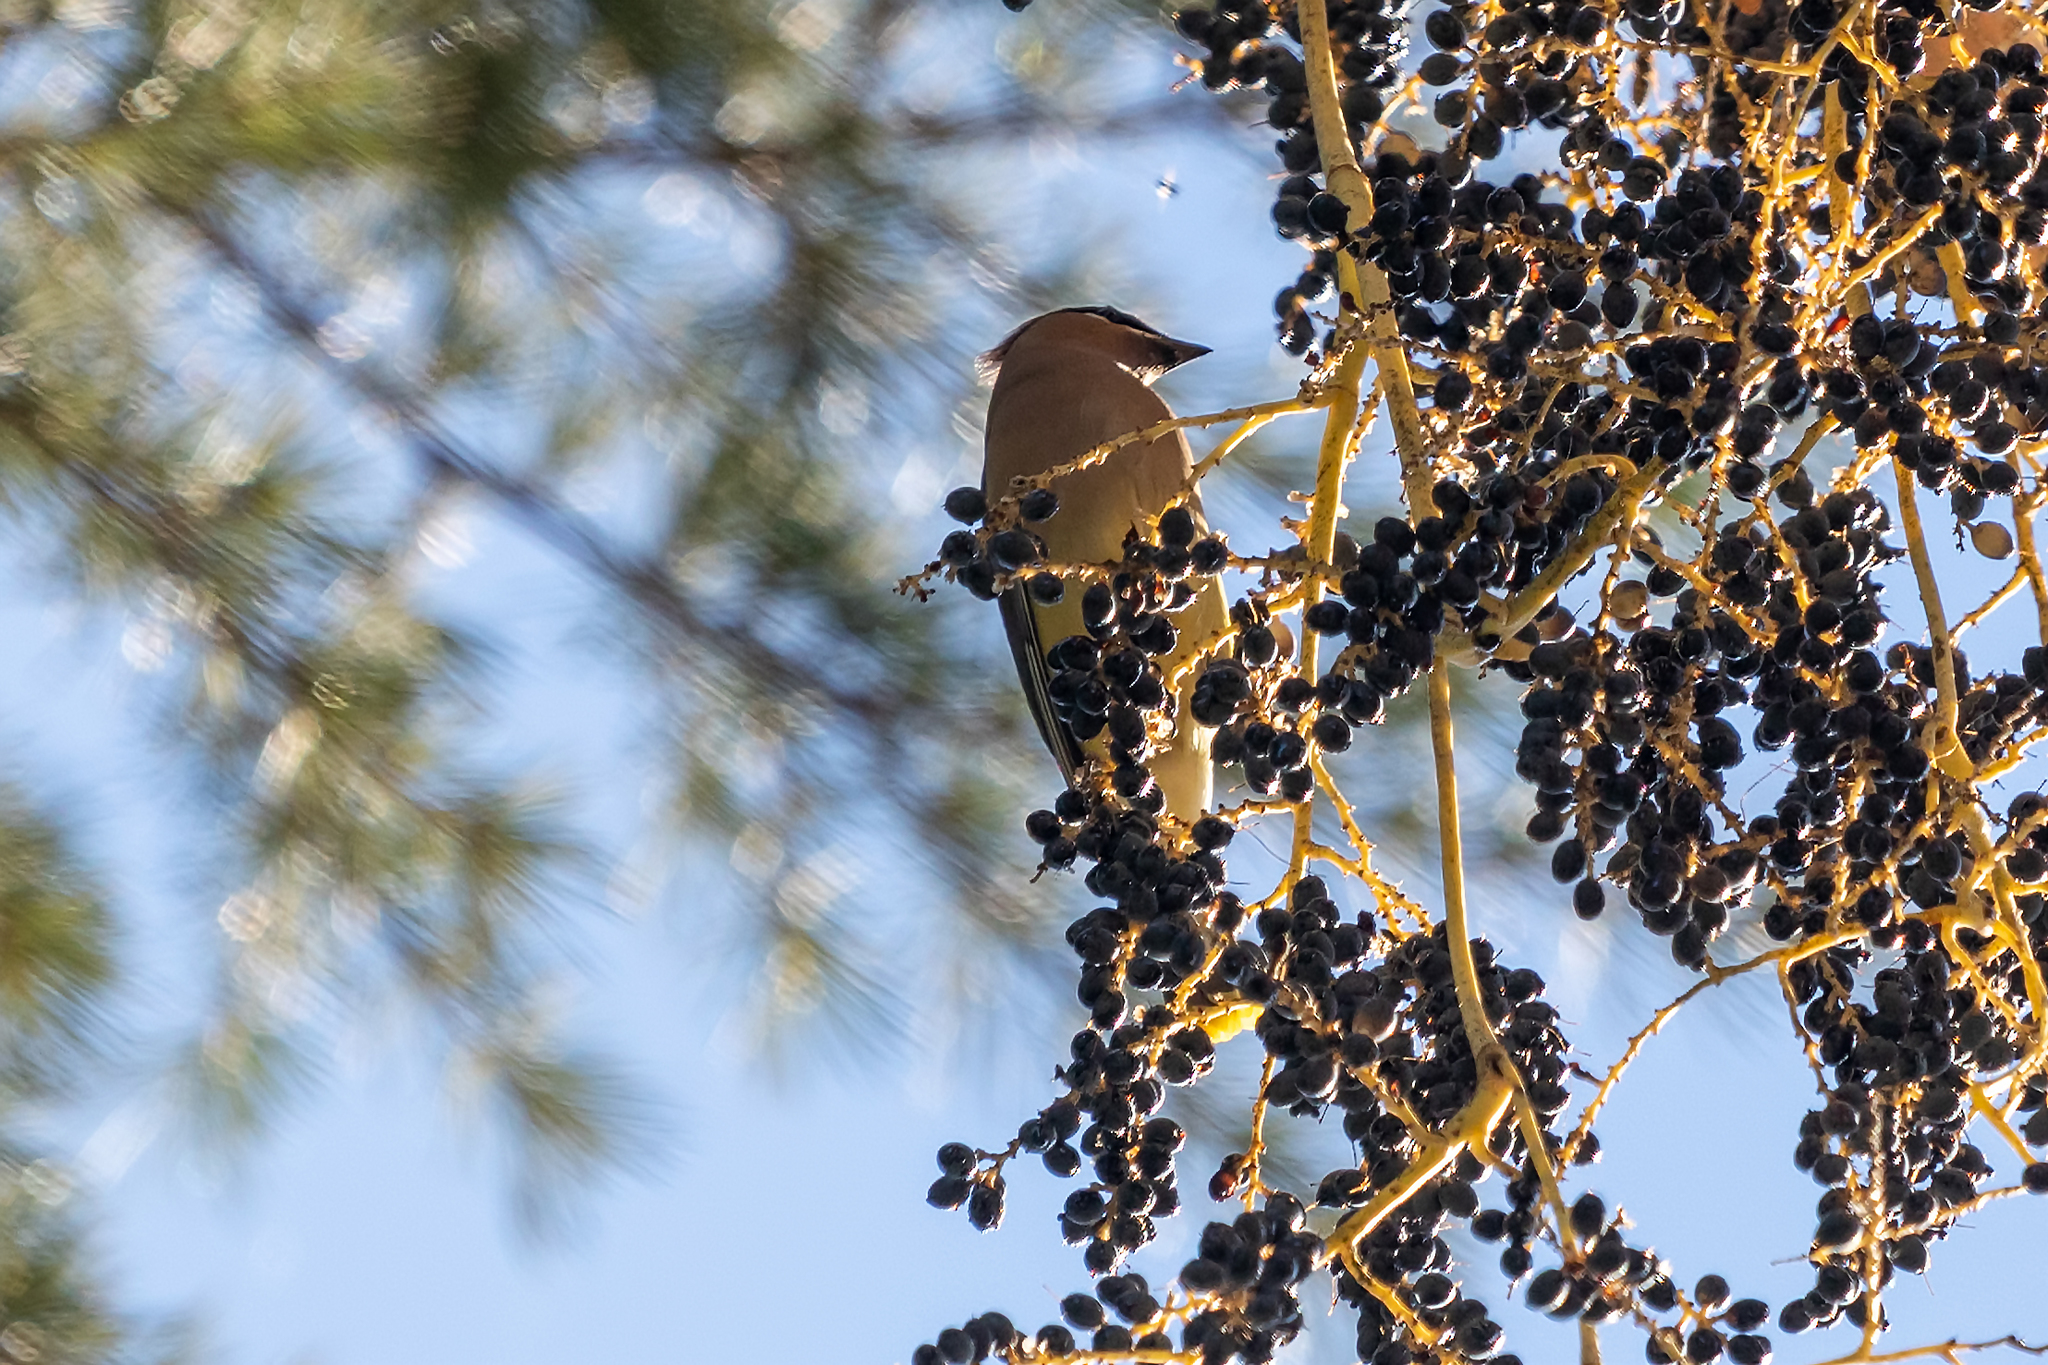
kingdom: Animalia
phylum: Chordata
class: Aves
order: Passeriformes
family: Bombycillidae
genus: Bombycilla
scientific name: Bombycilla cedrorum
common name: Cedar waxwing
